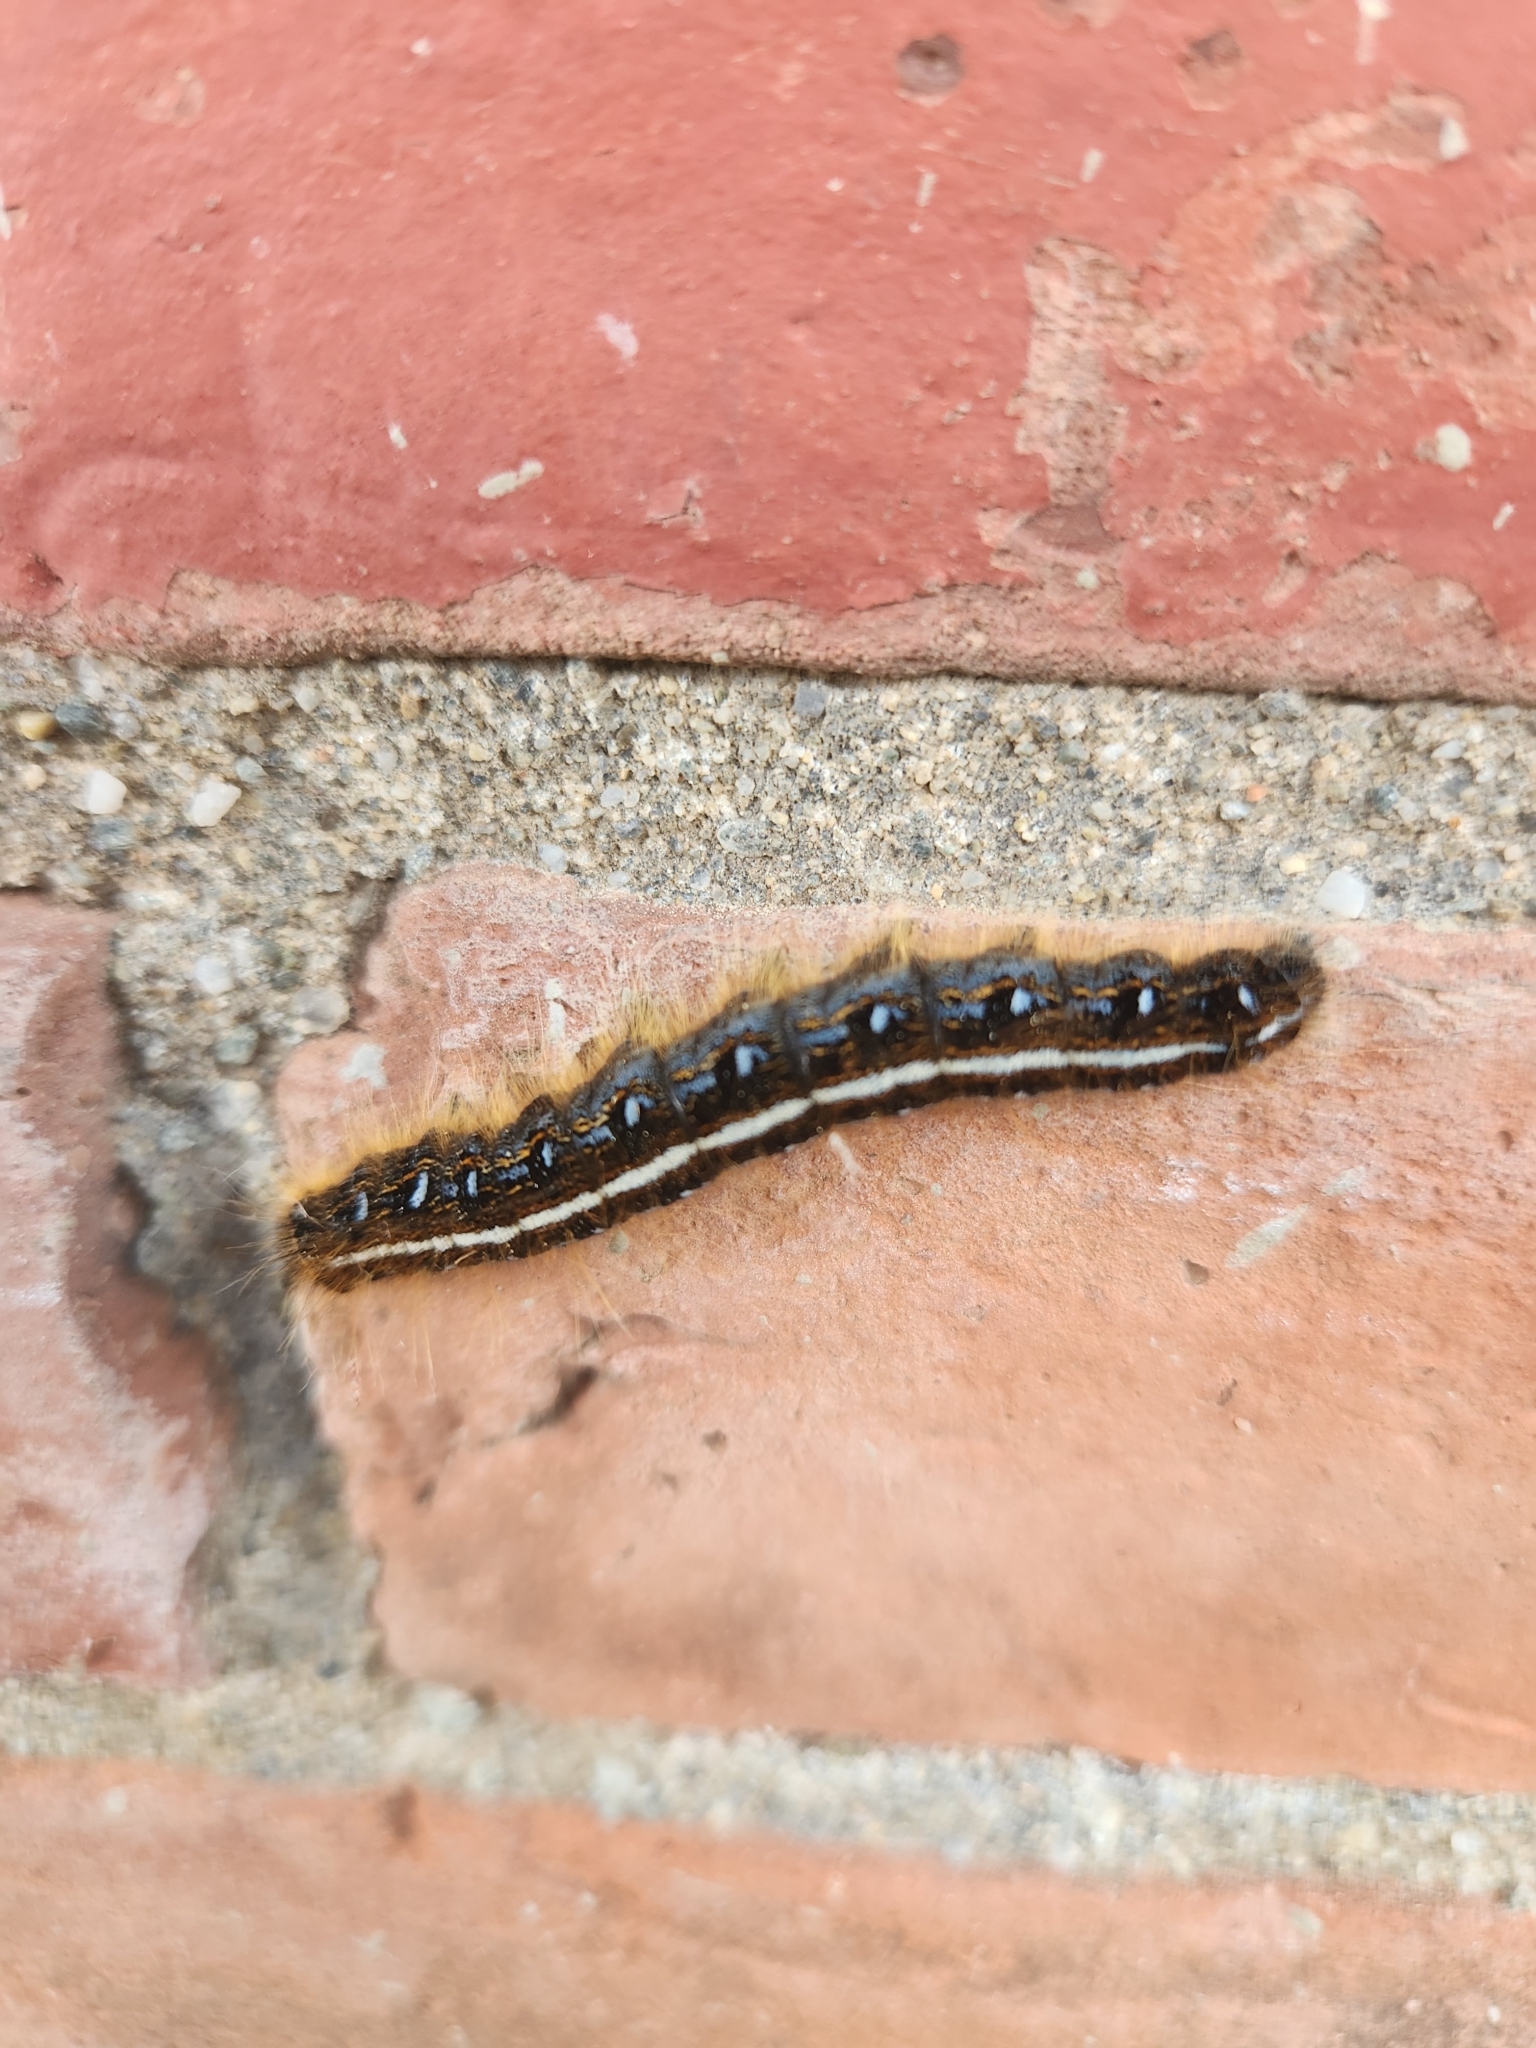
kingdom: Animalia
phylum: Arthropoda
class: Insecta
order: Lepidoptera
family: Lasiocampidae
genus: Malacosoma
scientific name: Malacosoma americana
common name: Eastern tent caterpillar moth
